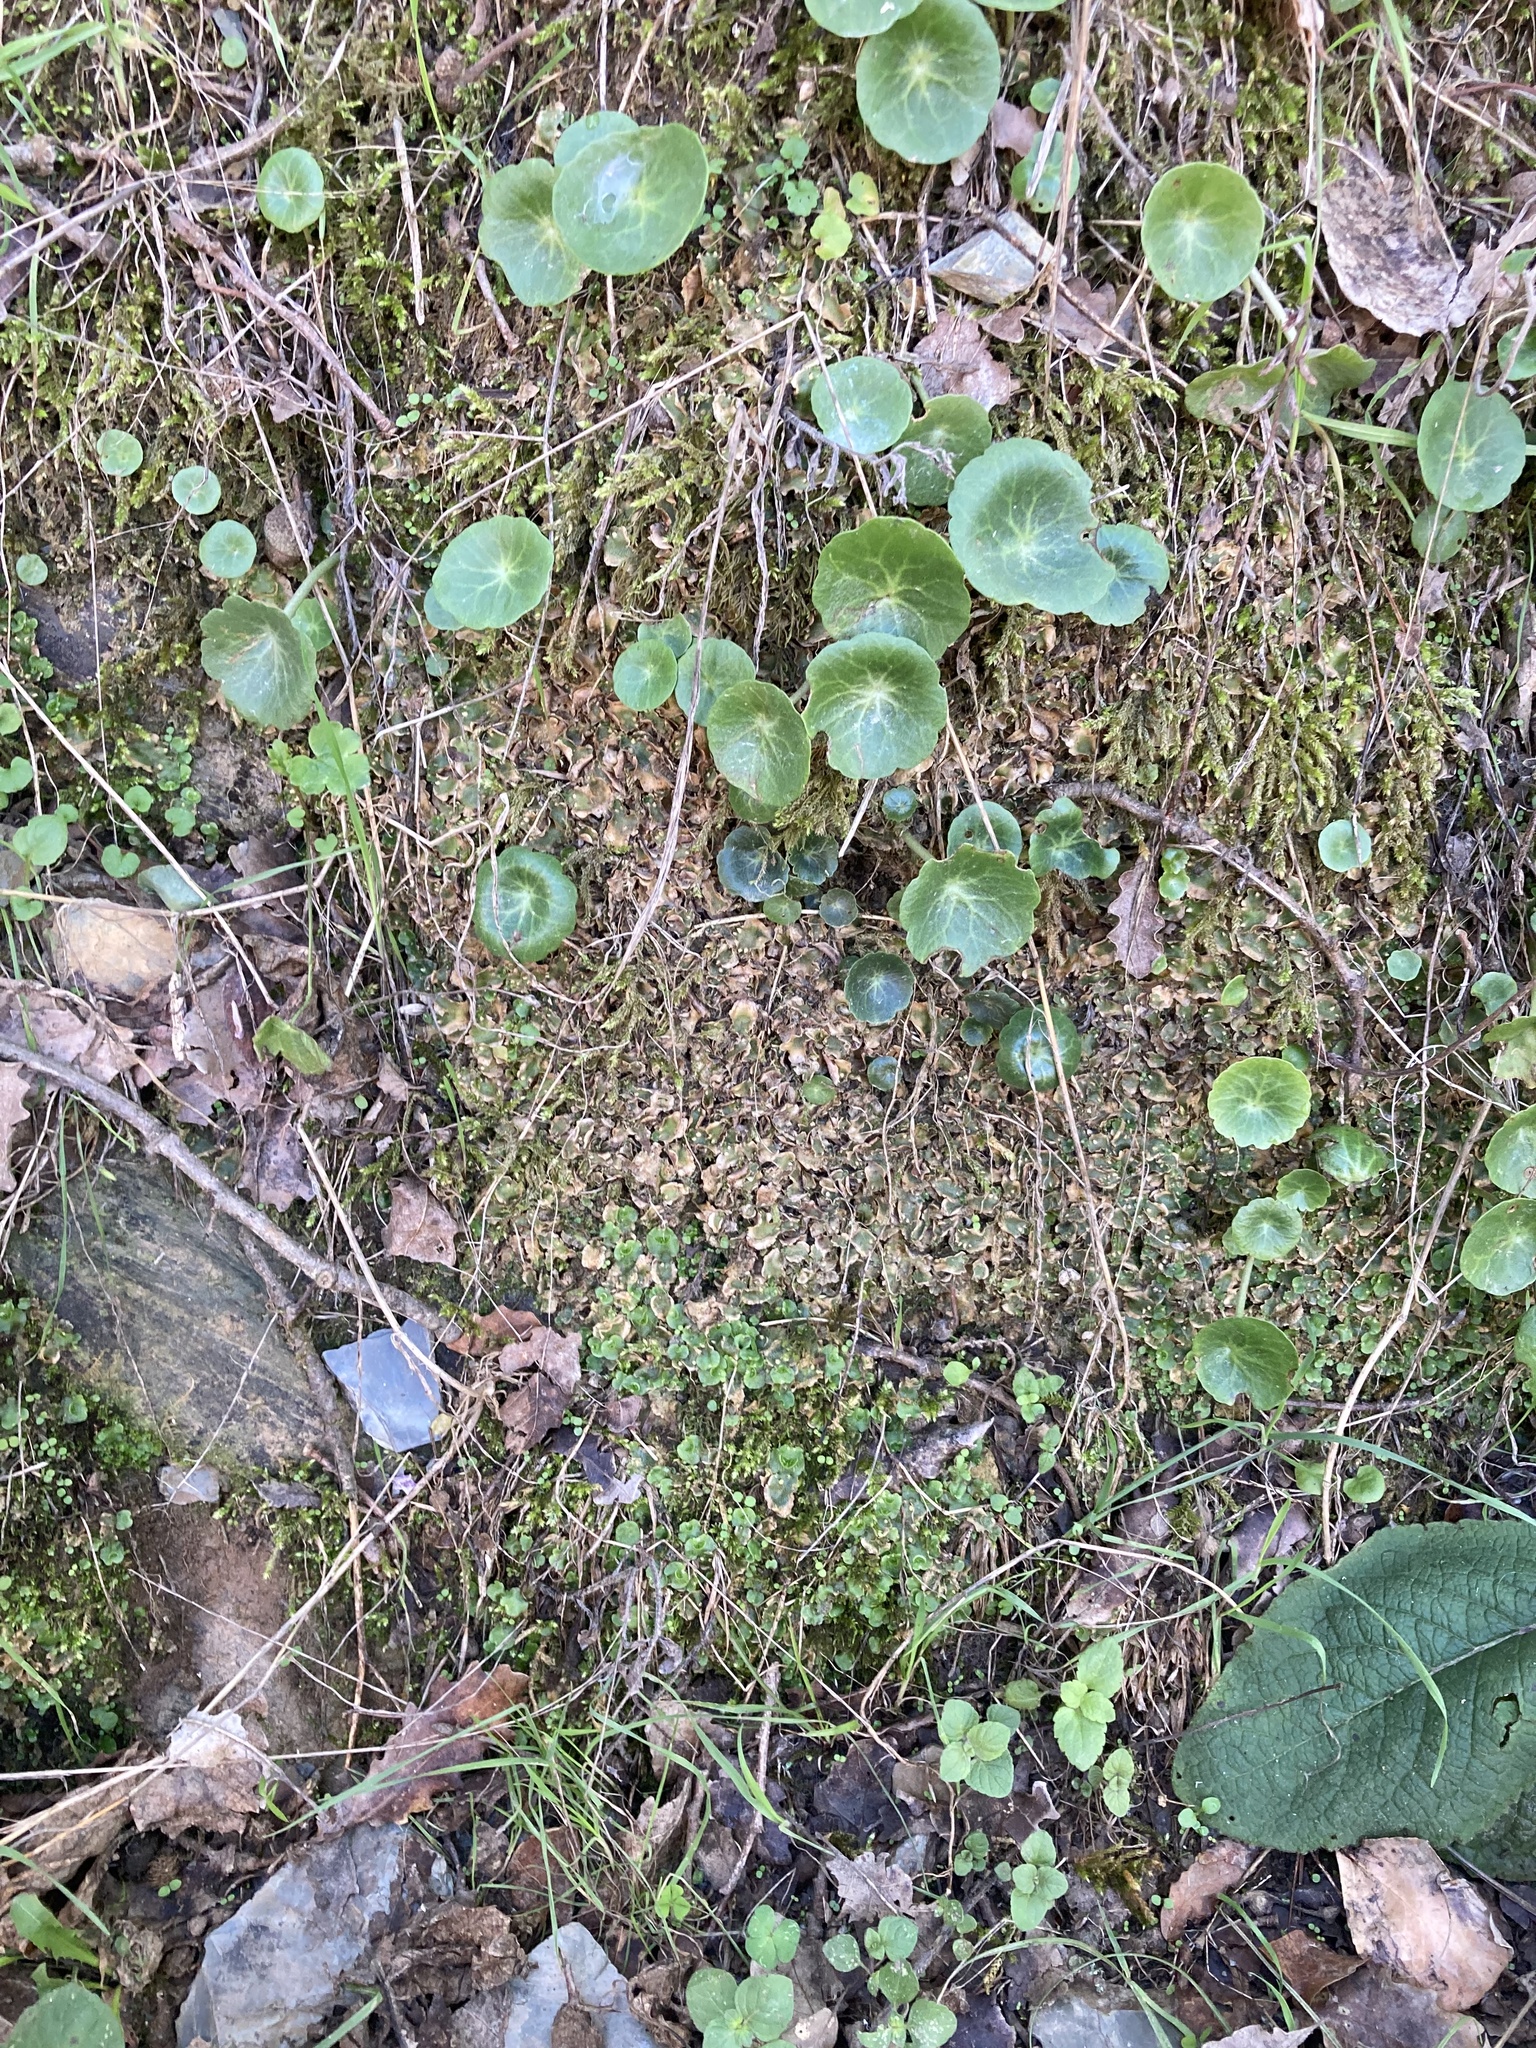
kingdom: Plantae
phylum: Tracheophyta
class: Magnoliopsida
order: Saxifragales
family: Crassulaceae
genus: Umbilicus
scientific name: Umbilicus rupestris
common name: Navelwort
